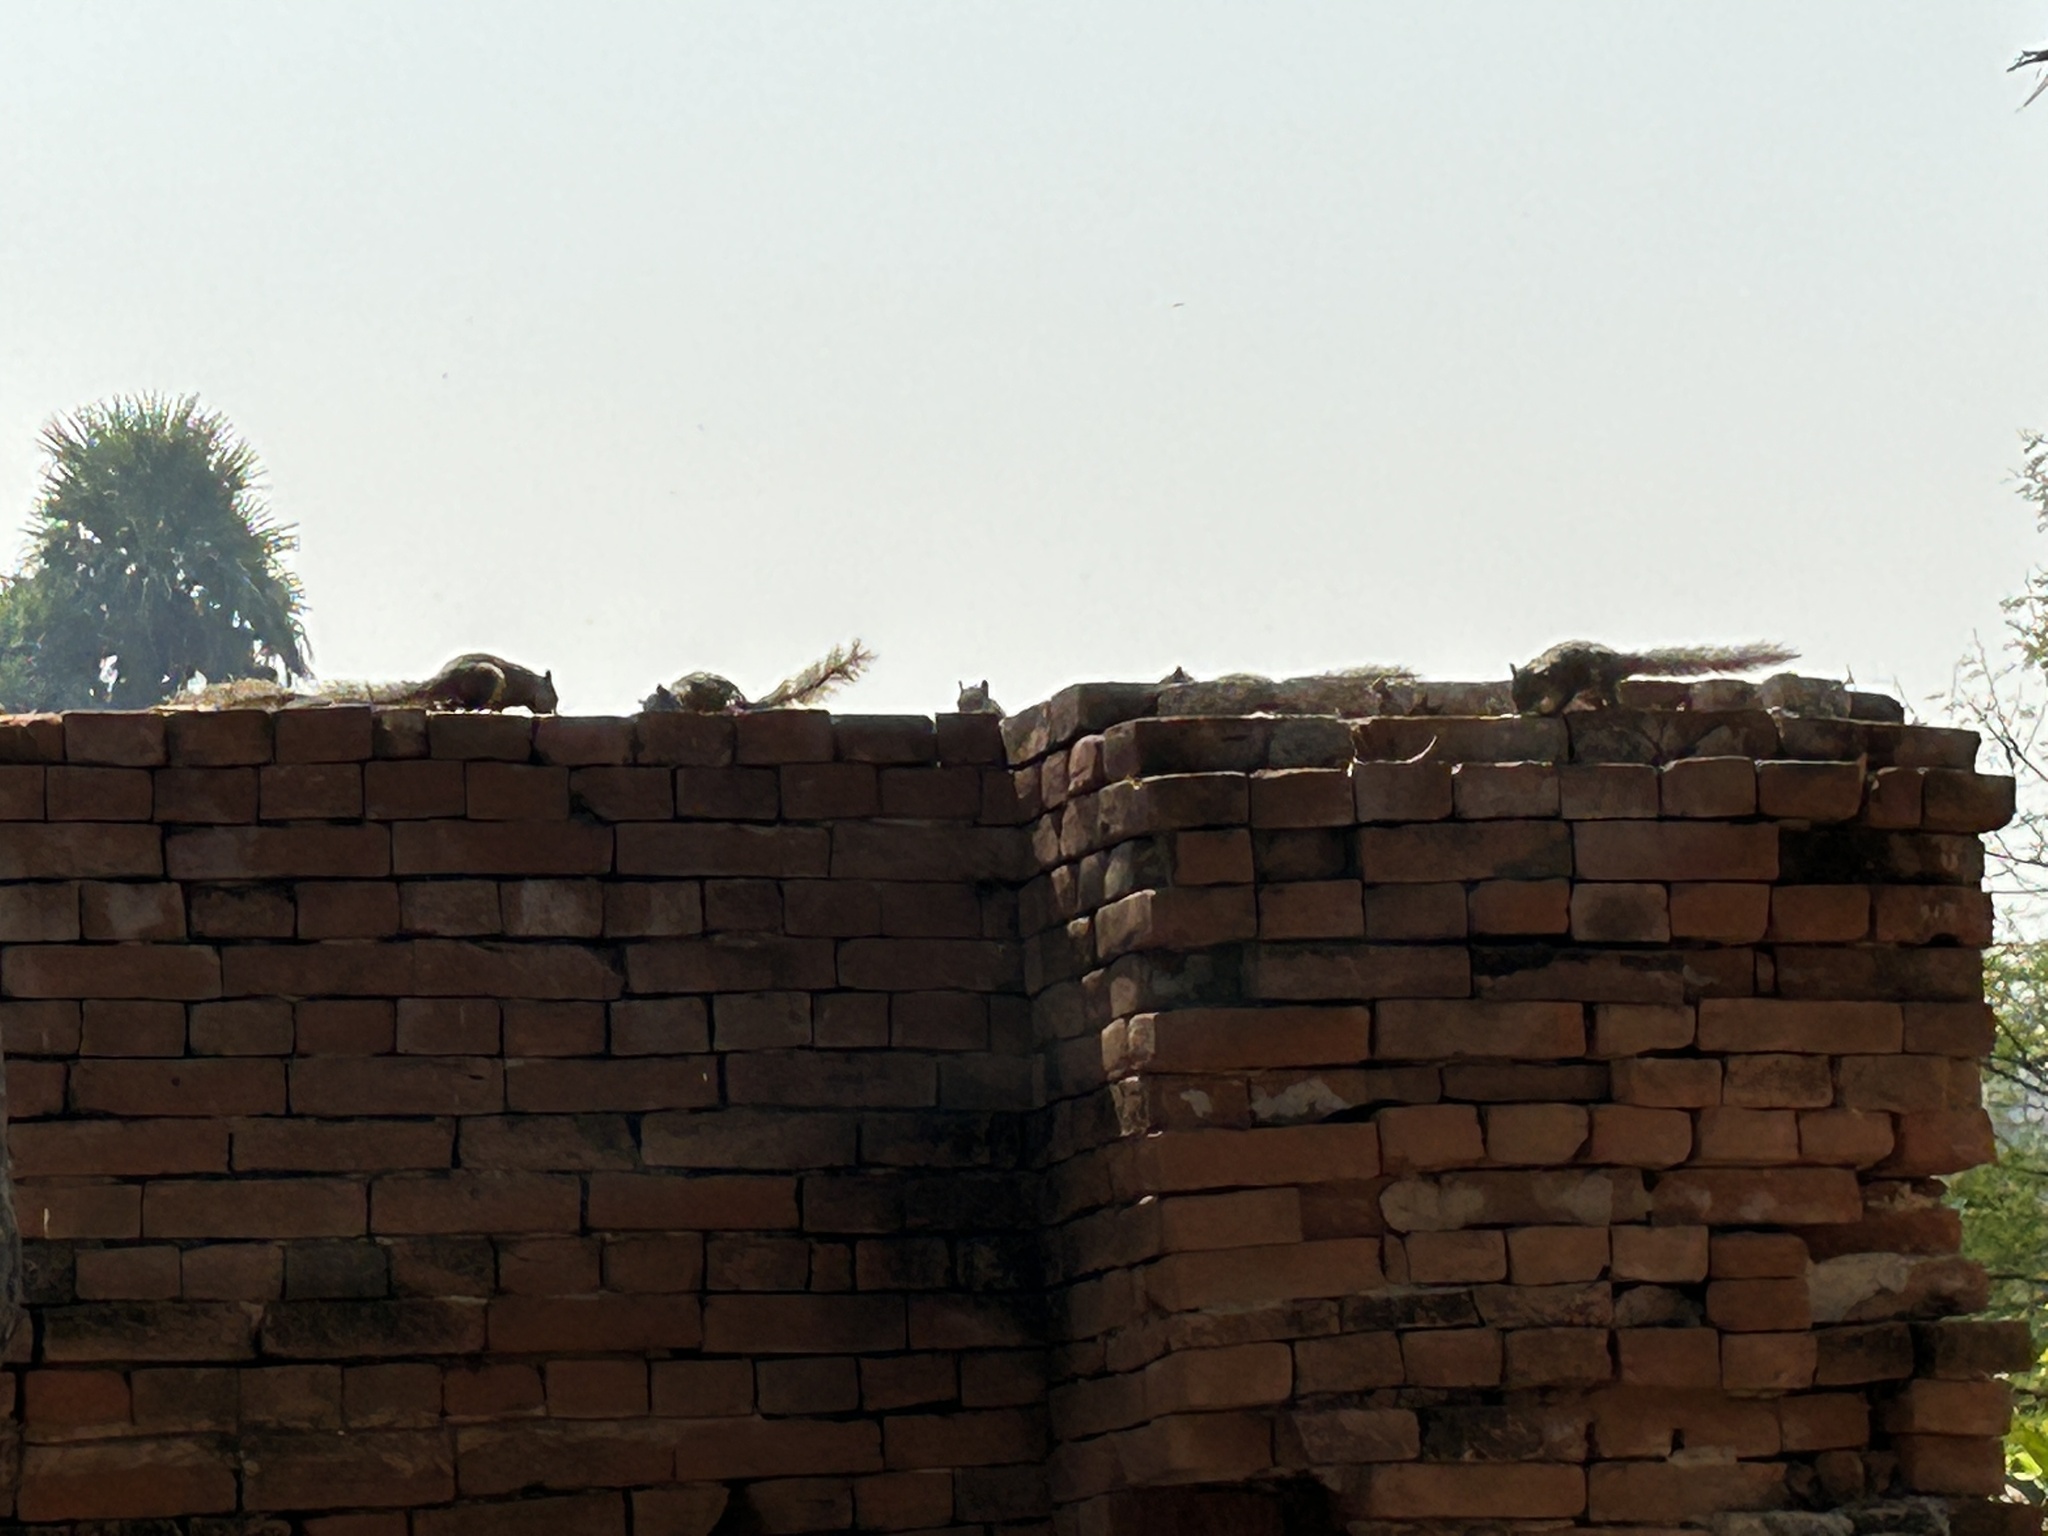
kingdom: Animalia
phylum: Chordata
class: Mammalia
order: Rodentia
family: Sciuridae
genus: Callosciurus
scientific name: Callosciurus pygerythrus
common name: Irrawaddy squirrel
